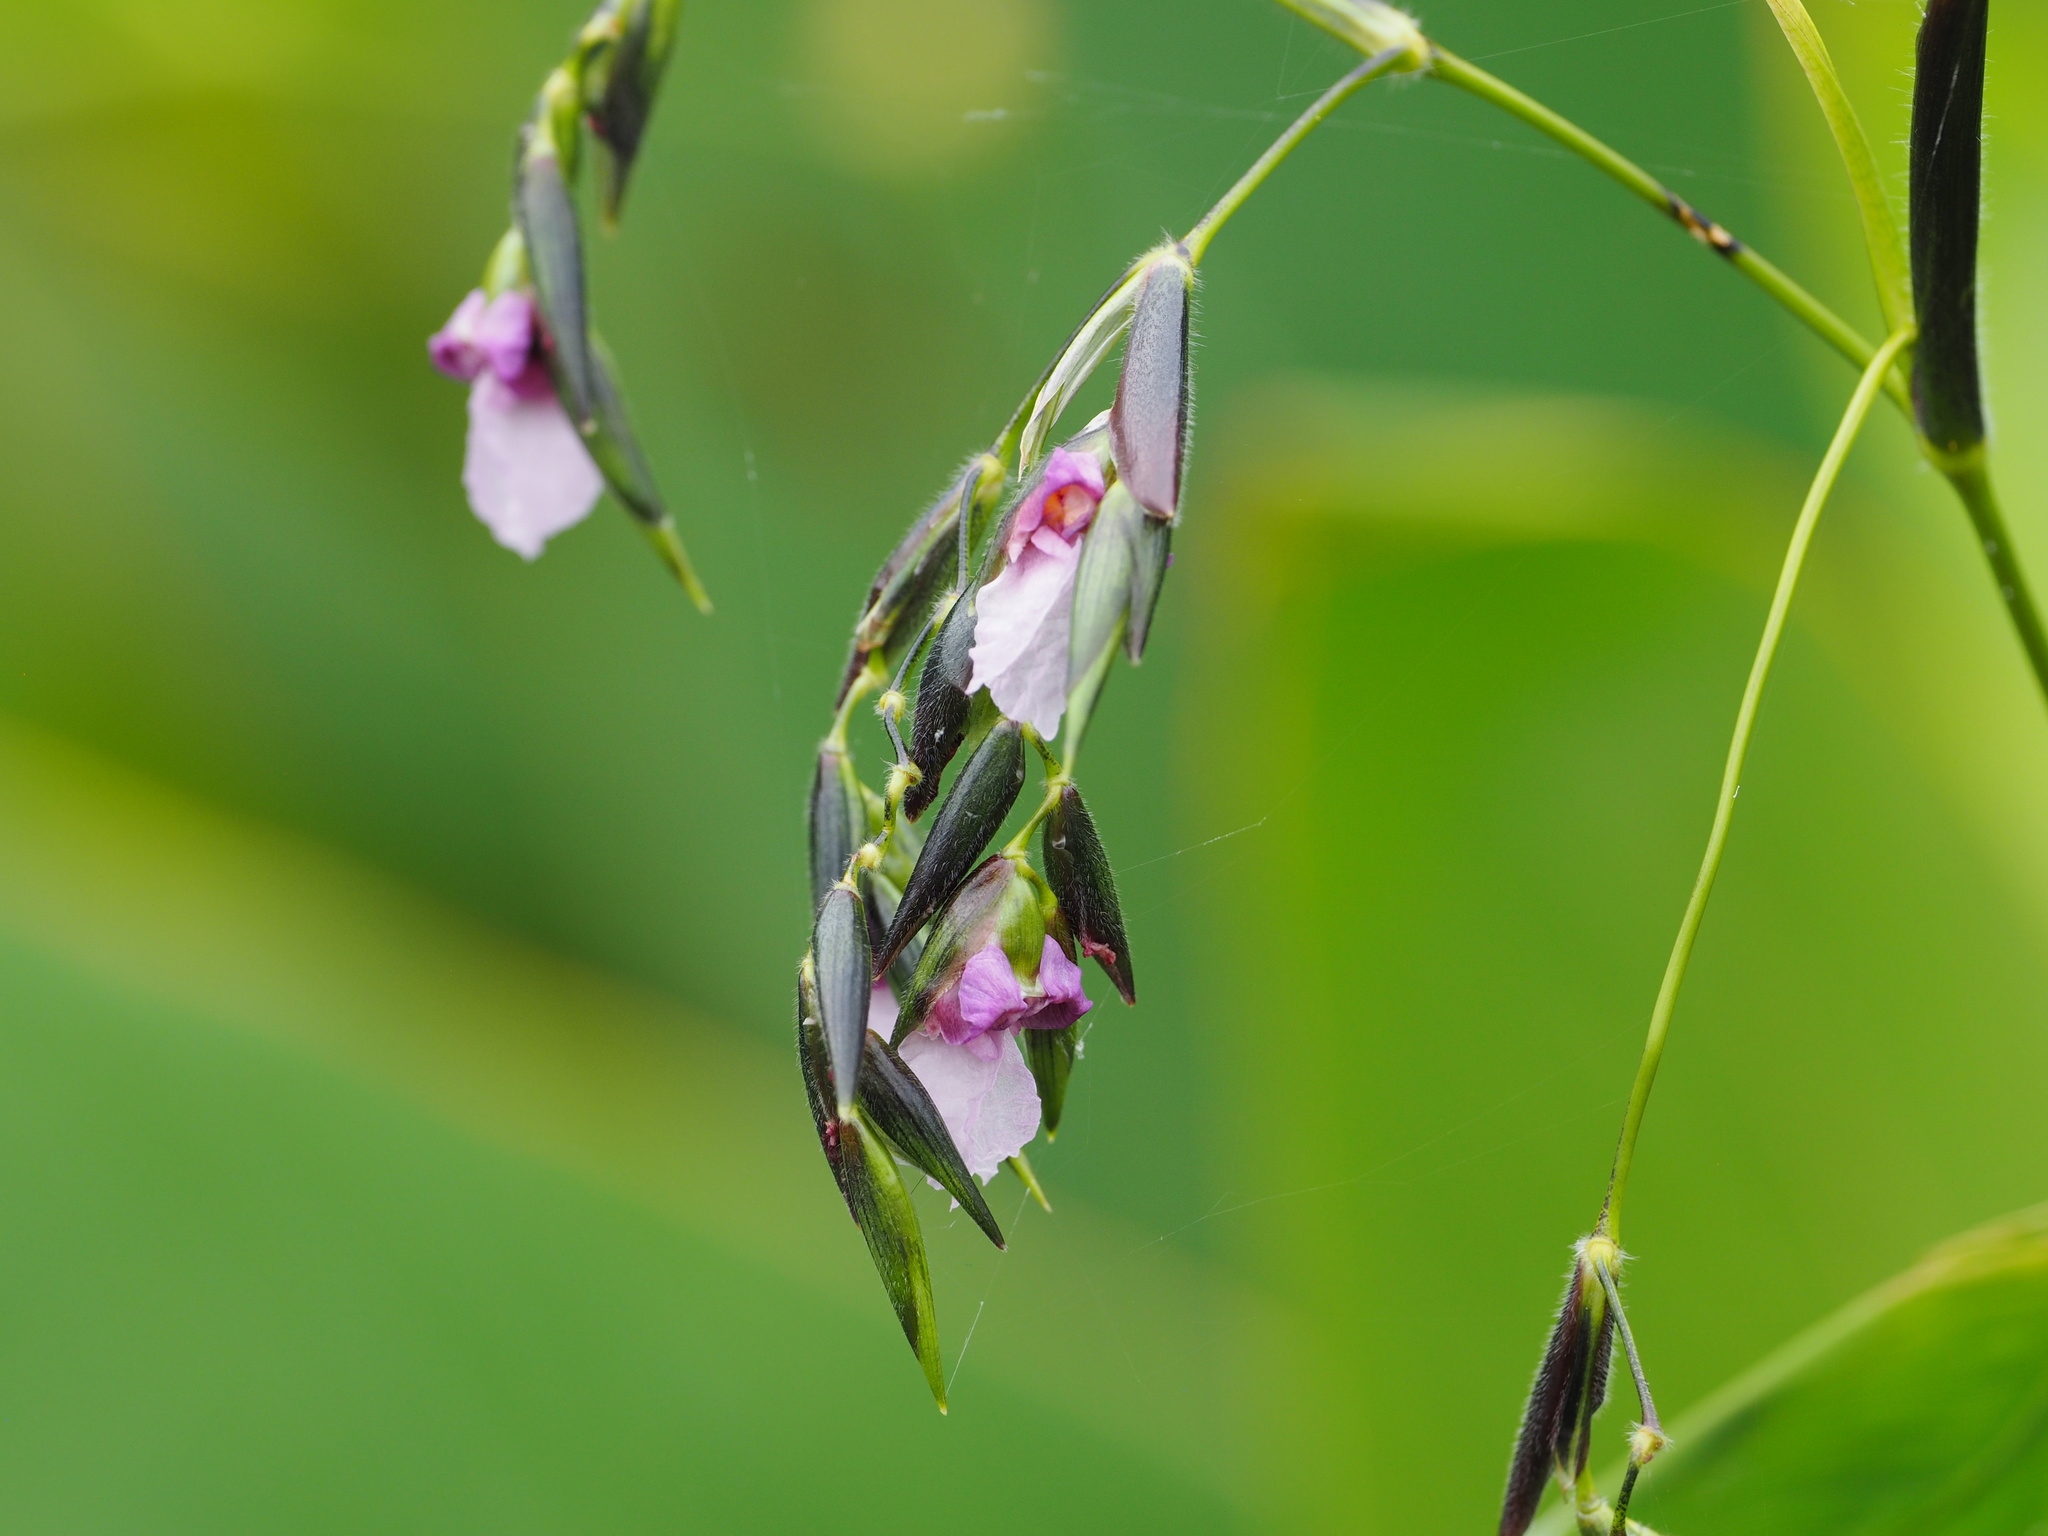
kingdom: Plantae
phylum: Tracheophyta
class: Liliopsida
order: Zingiberales
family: Marantaceae
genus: Thalia
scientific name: Thalia geniculata
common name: Arrowroot
